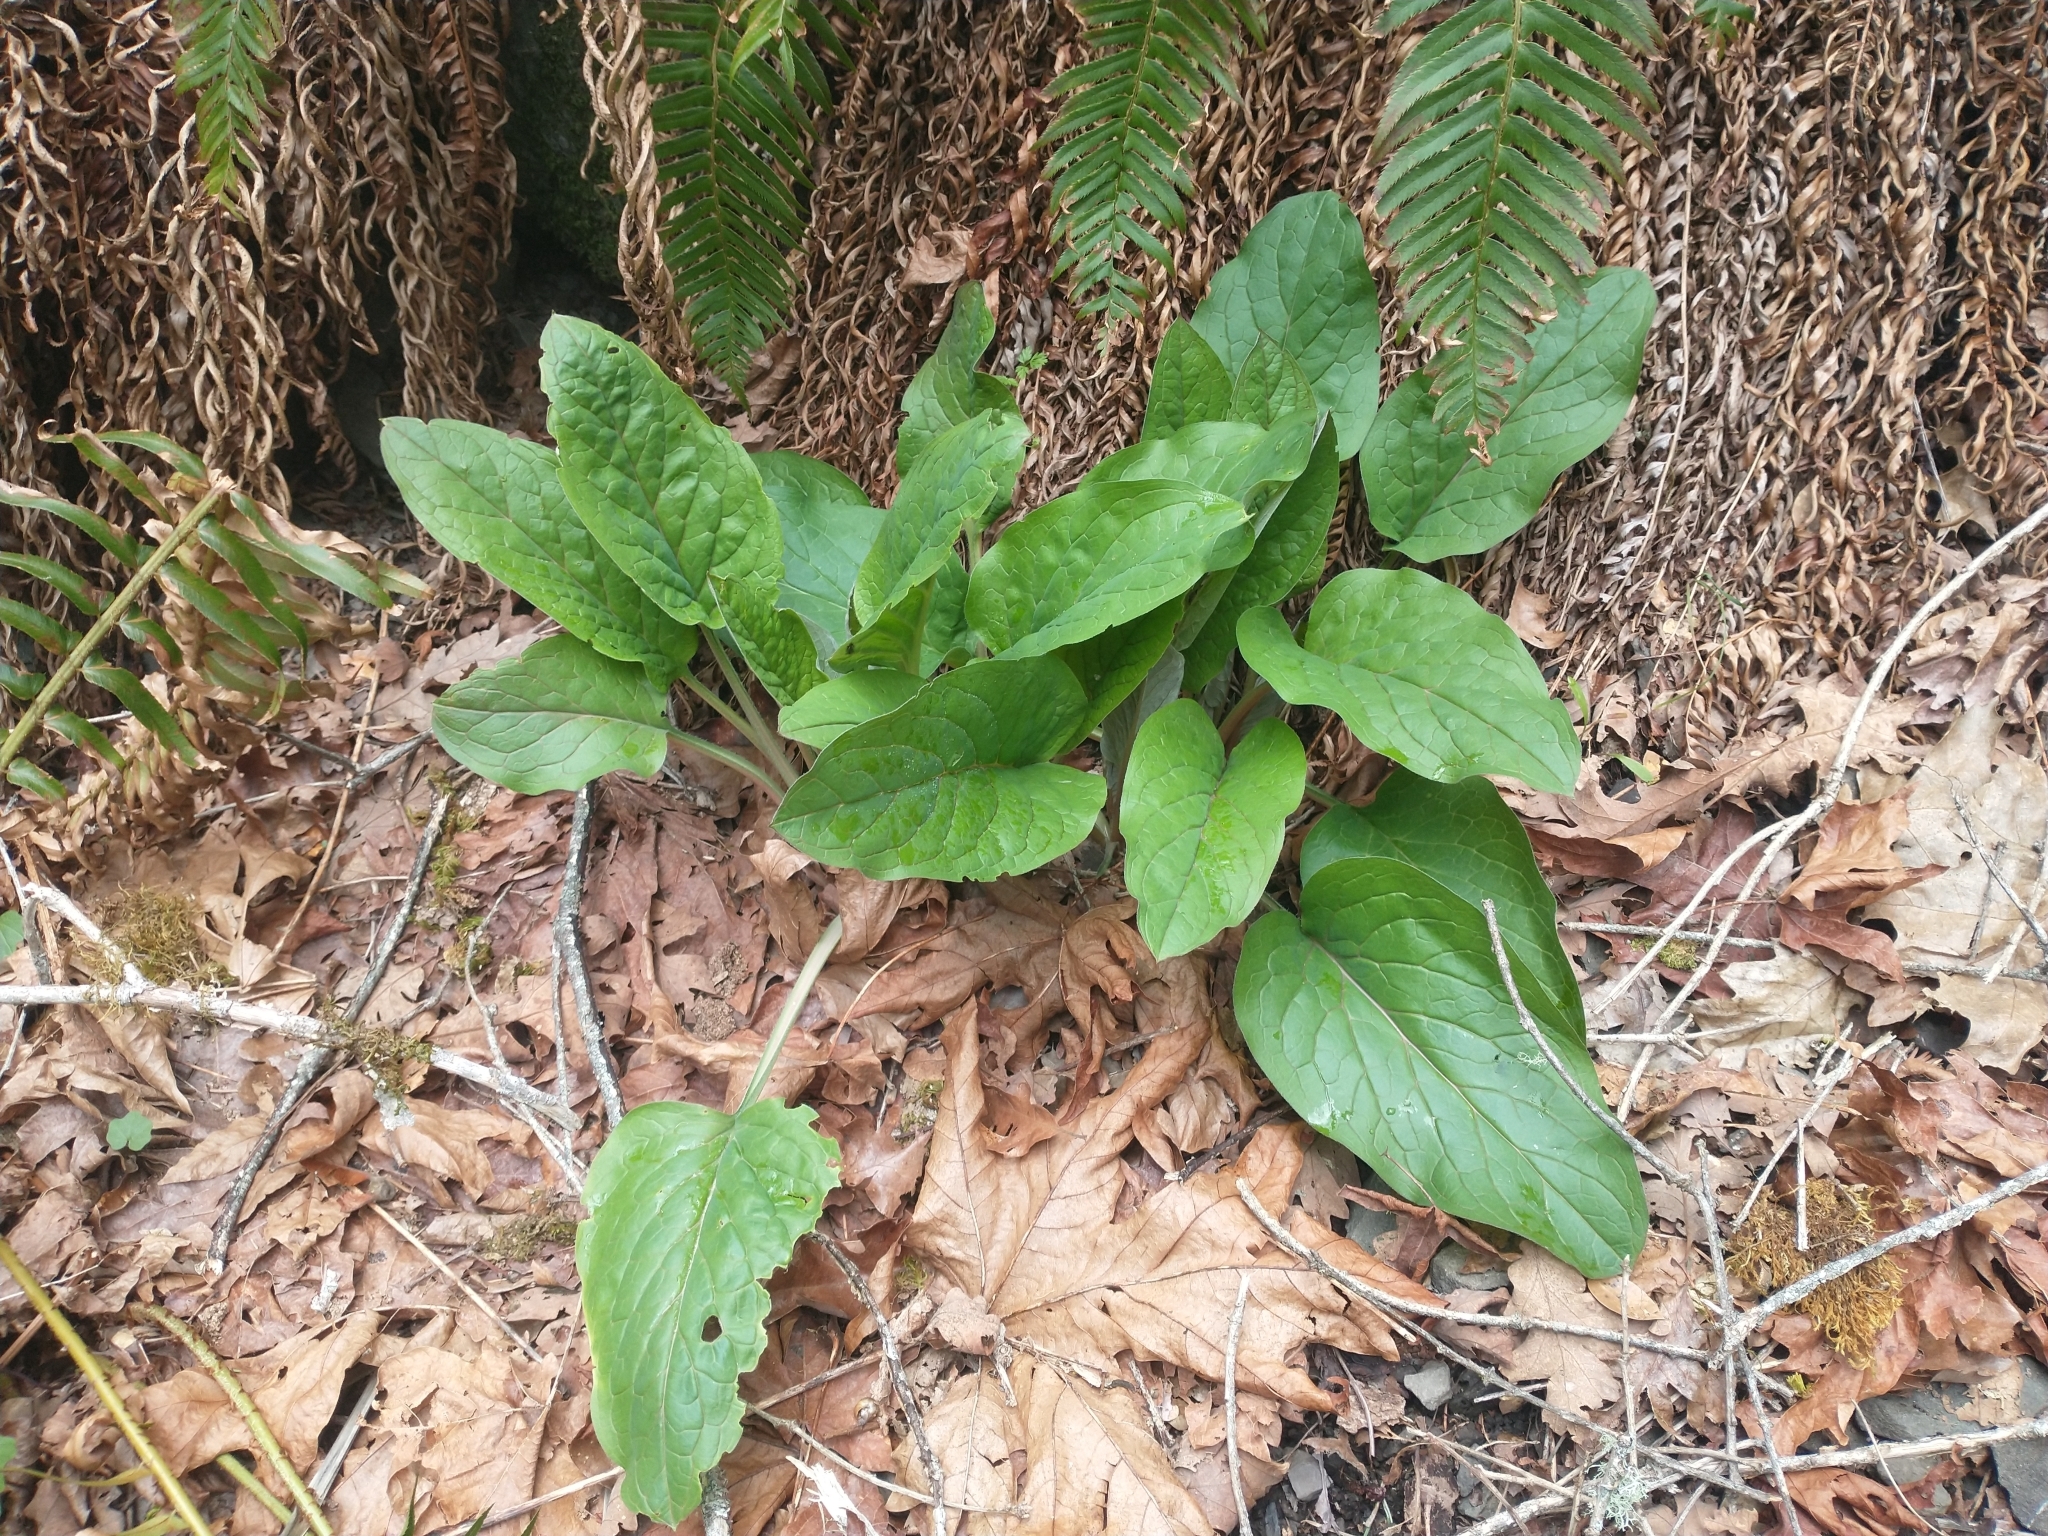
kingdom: Plantae
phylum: Tracheophyta
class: Magnoliopsida
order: Boraginales
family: Boraginaceae
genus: Adelinia
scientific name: Adelinia grande
